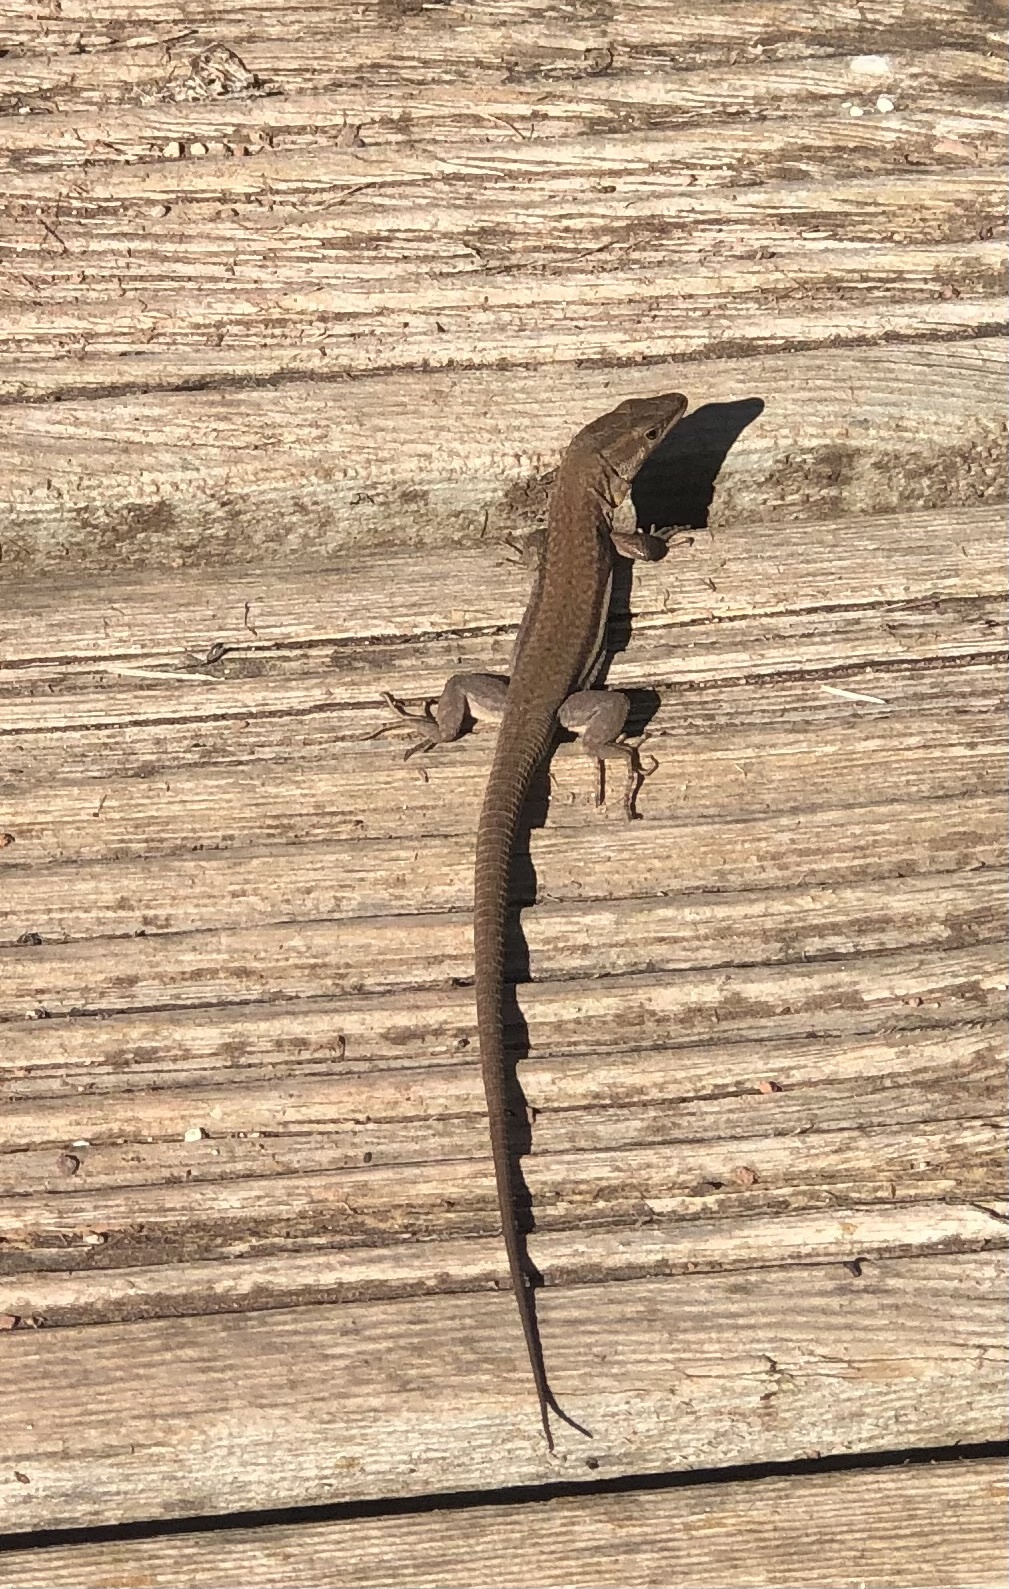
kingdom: Animalia
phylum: Chordata
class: Squamata
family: Lacertidae
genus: Podarcis
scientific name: Podarcis liolepis
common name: Catalonian wall lizard
